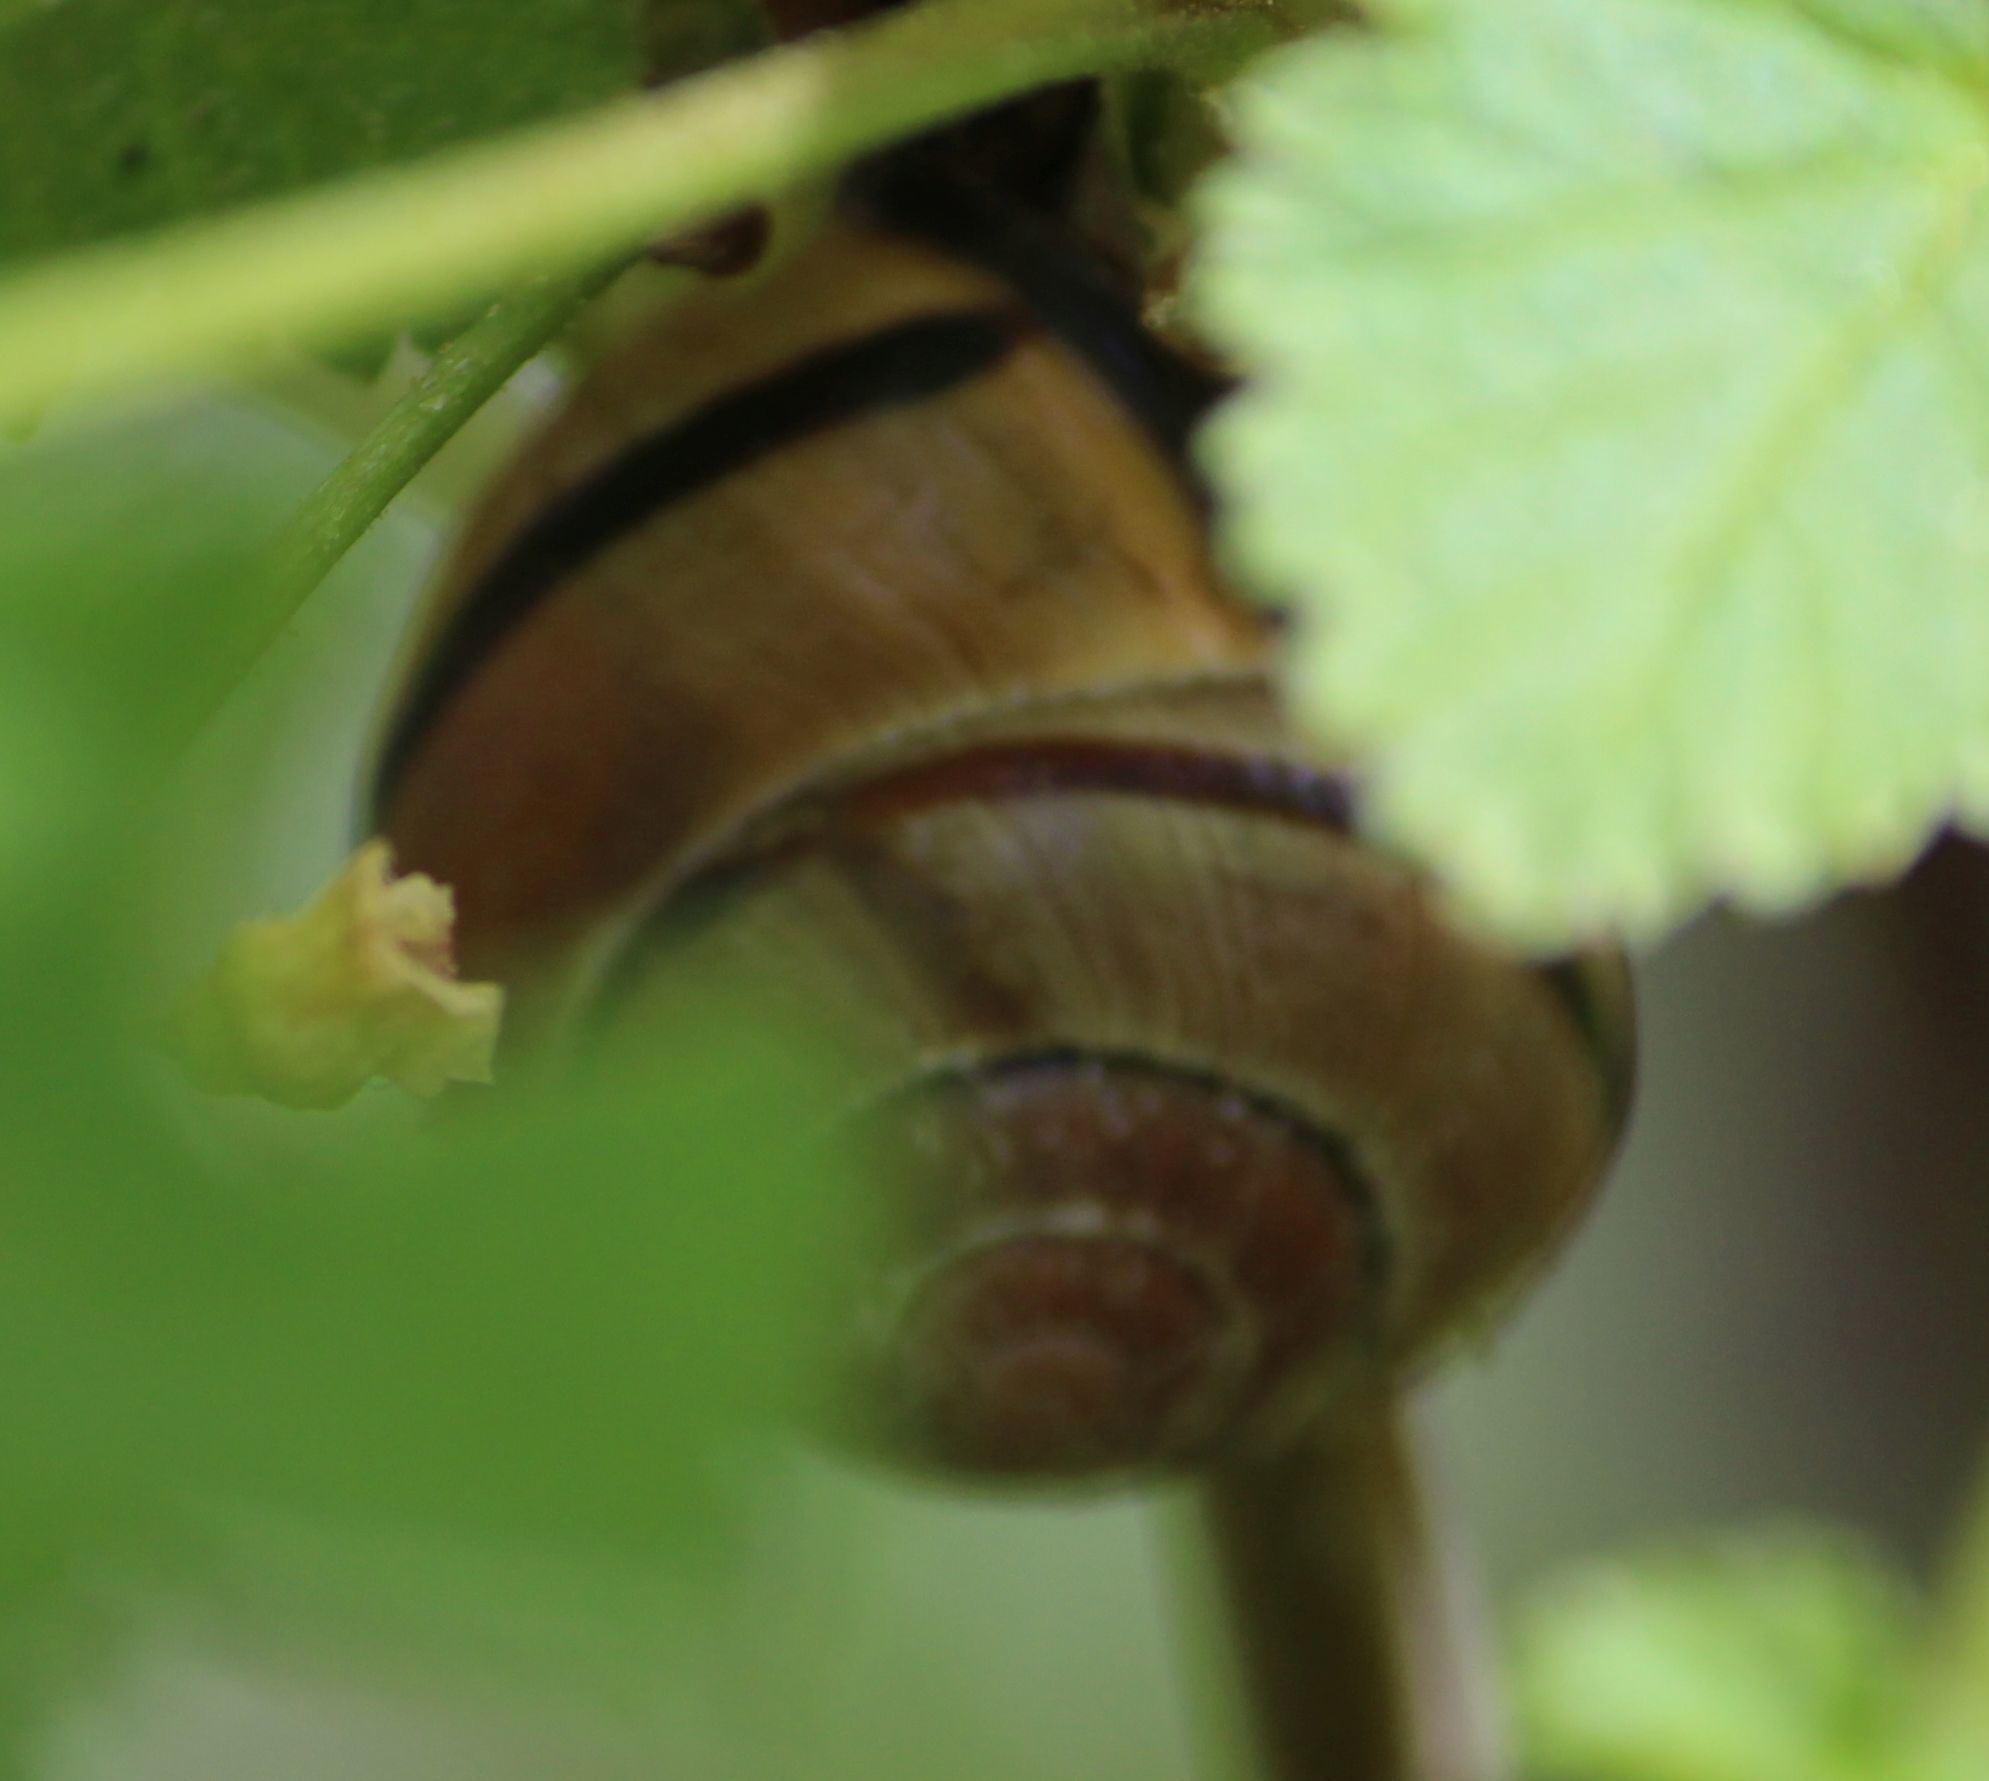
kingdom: Animalia
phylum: Mollusca
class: Gastropoda
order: Stylommatophora
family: Helicidae
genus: Cepaea
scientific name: Cepaea nemoralis
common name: Grovesnail
